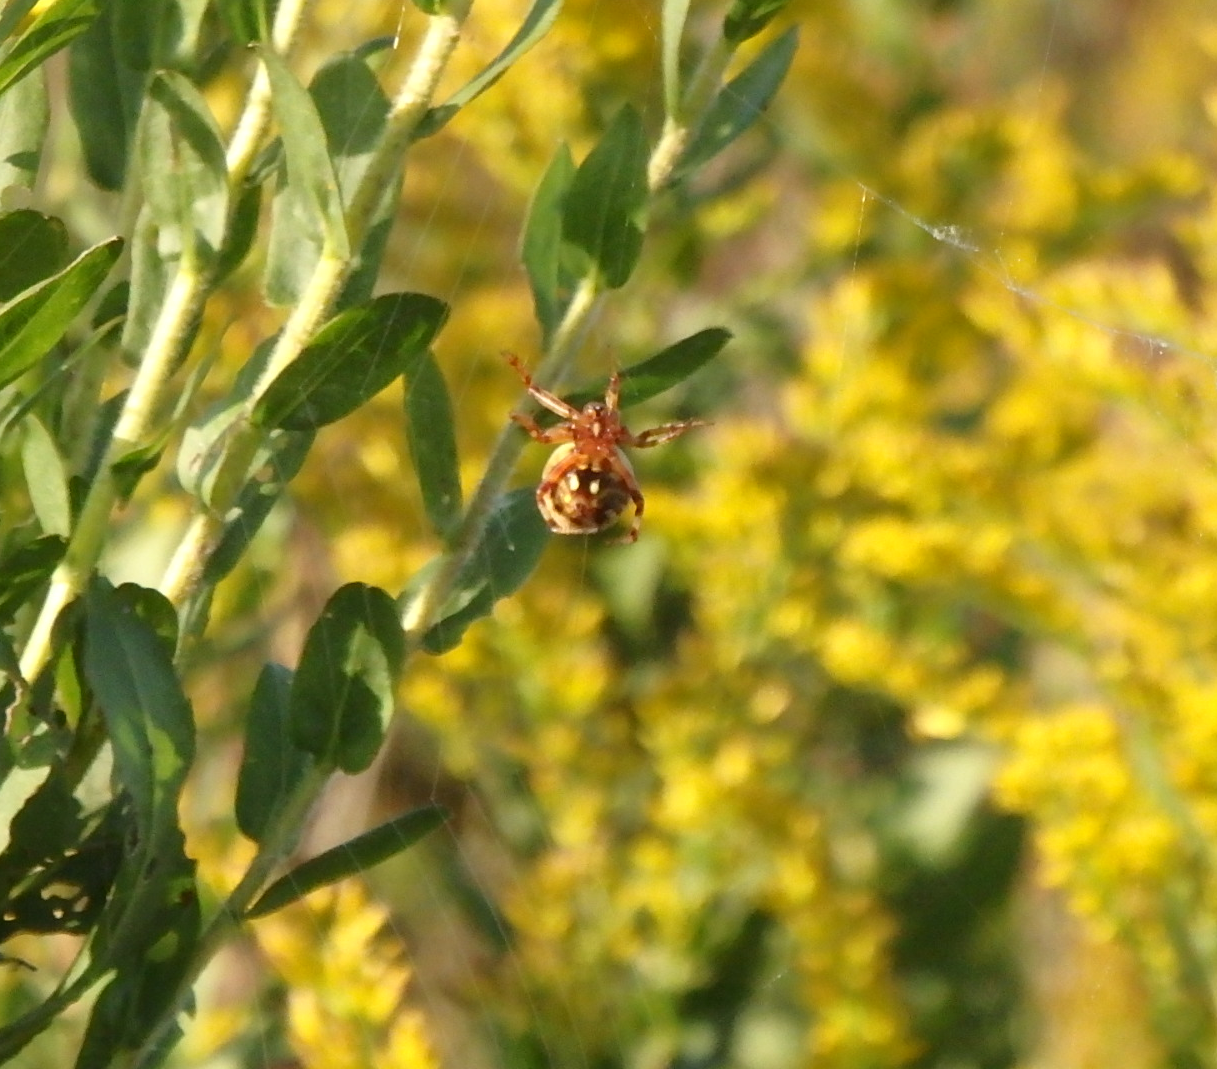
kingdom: Animalia
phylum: Arthropoda
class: Arachnida
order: Araneae
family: Araneidae
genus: Neoscona
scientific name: Neoscona crucifera
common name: Spotted orbweaver
